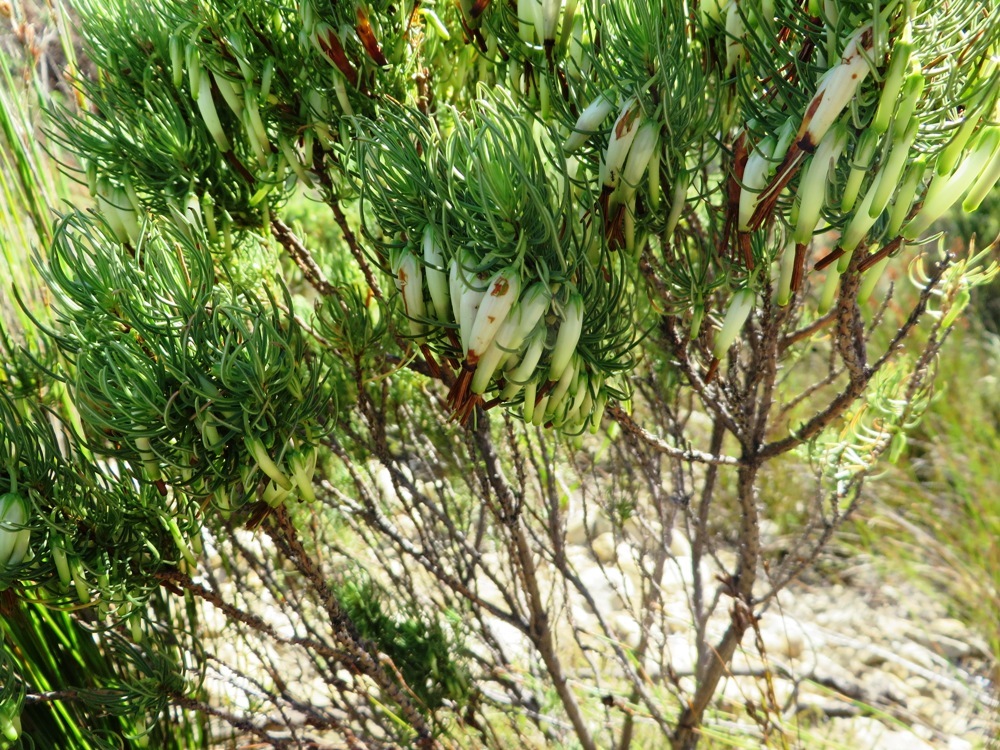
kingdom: Plantae
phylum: Tracheophyta
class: Magnoliopsida
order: Ericales
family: Ericaceae
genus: Erica
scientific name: Erica plukenetii
